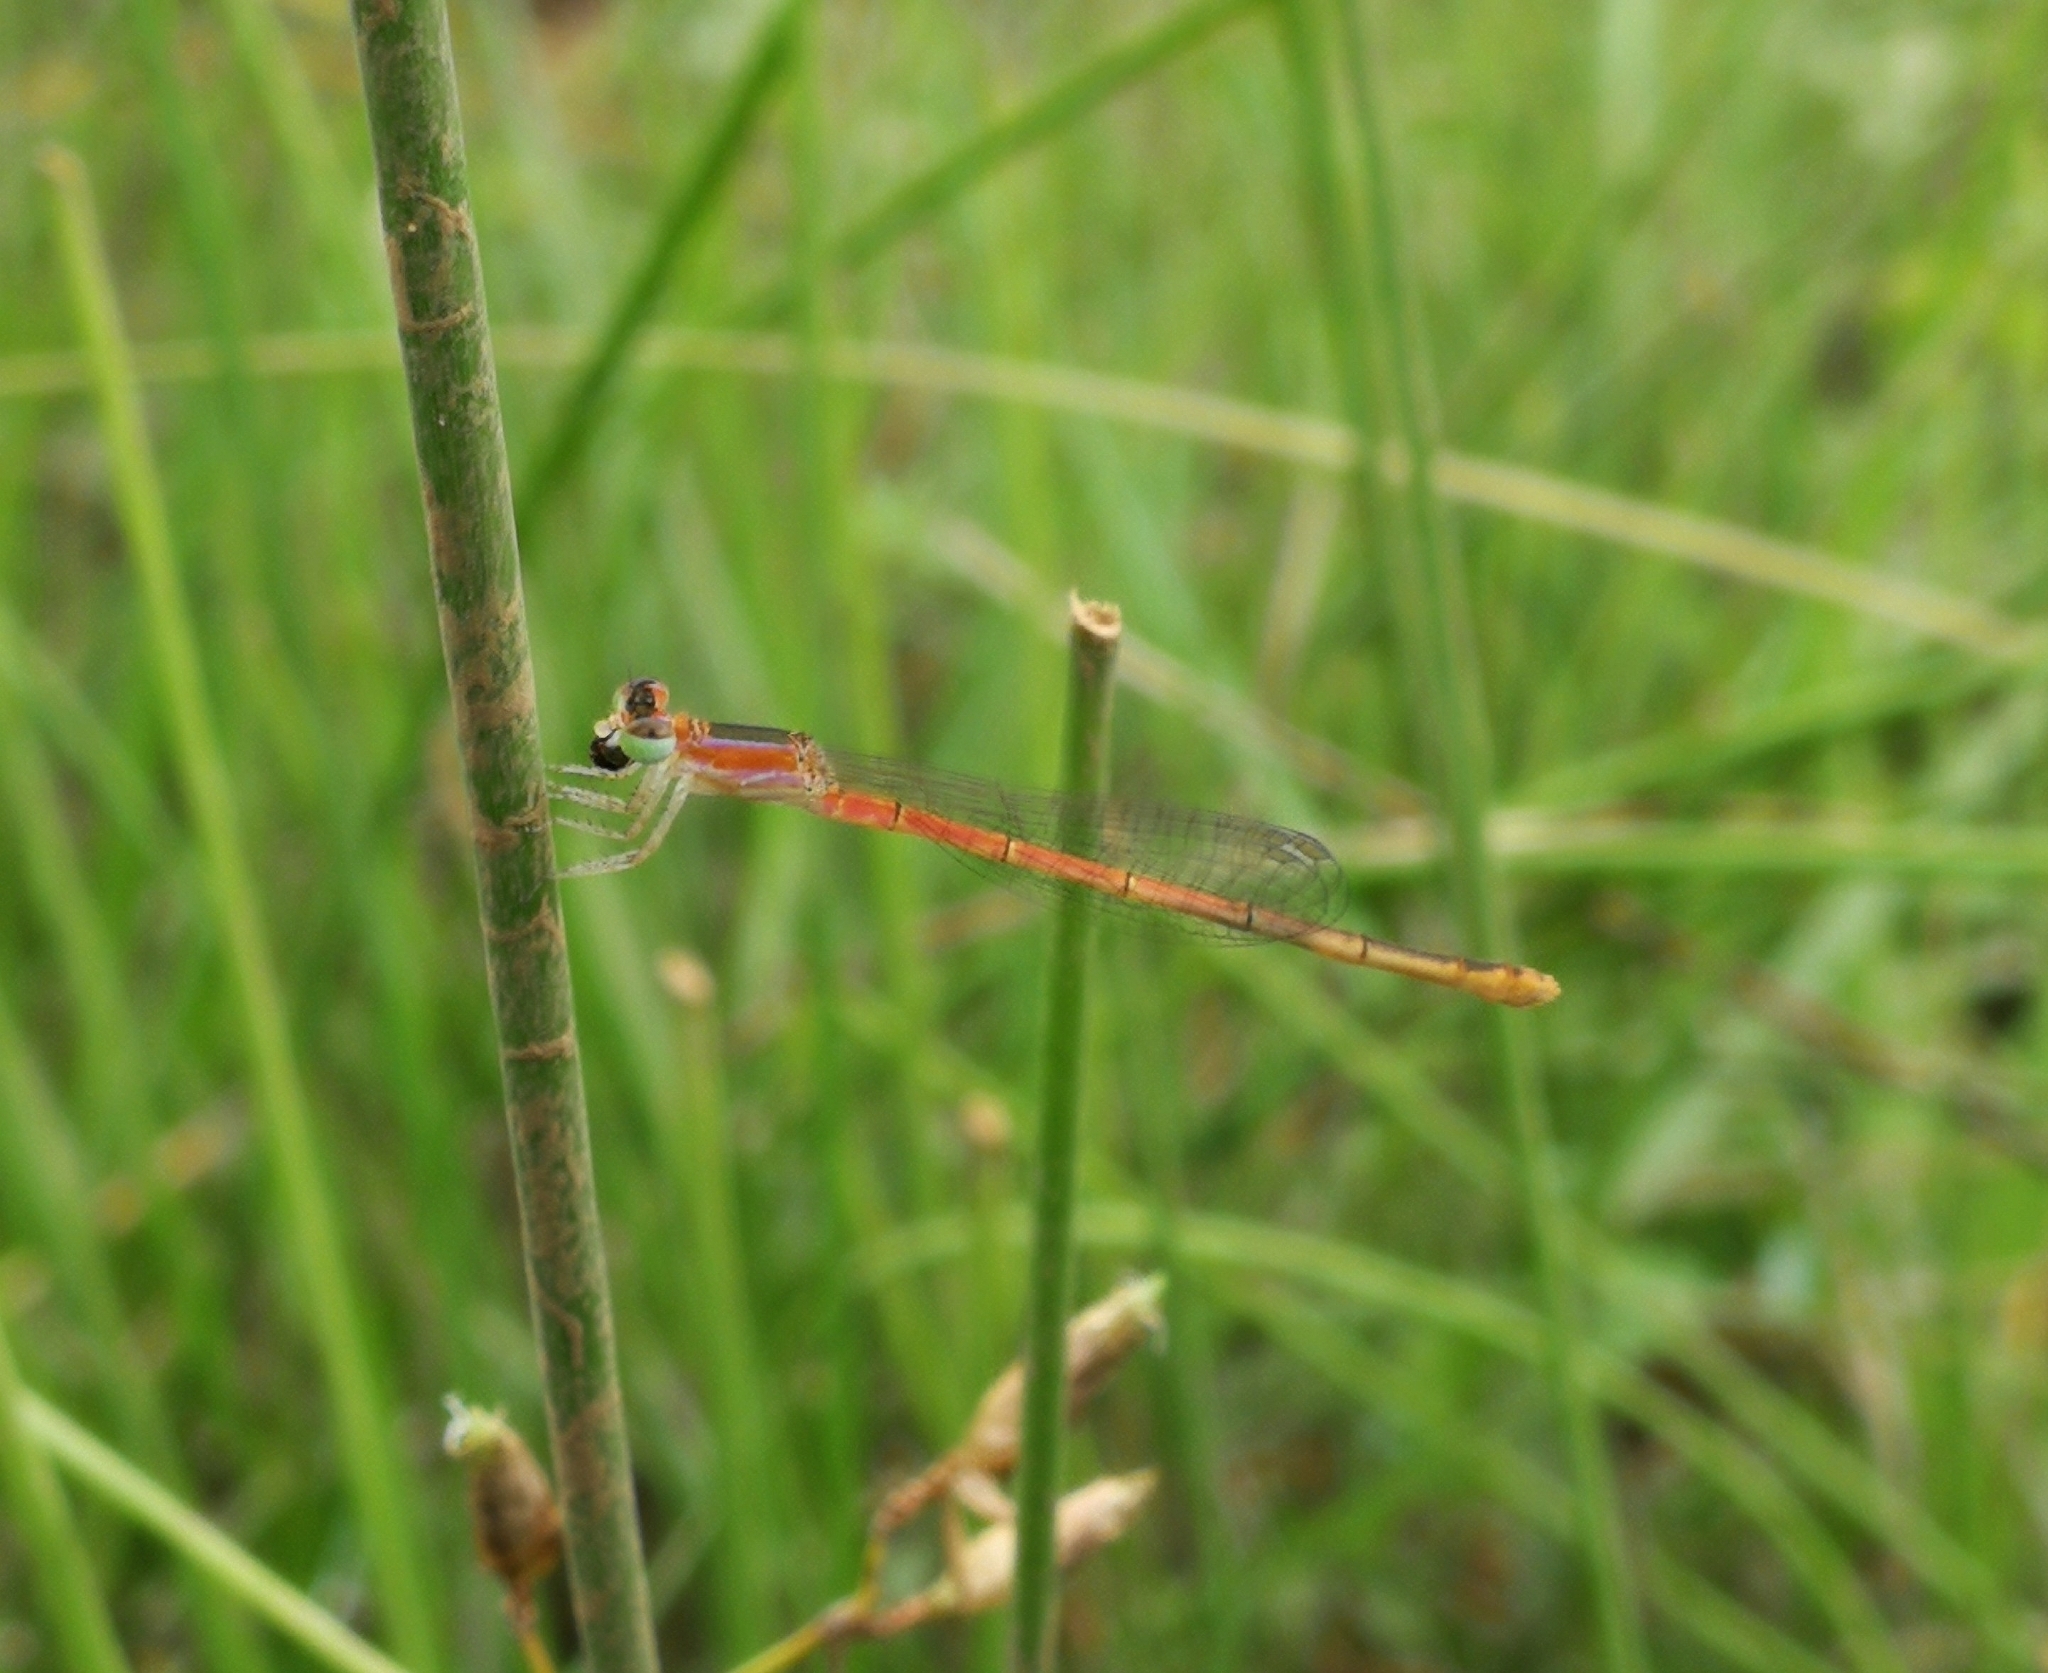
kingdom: Animalia
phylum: Arthropoda
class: Insecta
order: Odonata
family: Coenagrionidae
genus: Agriocnemis
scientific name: Agriocnemis pygmaea
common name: Pygmy wisp
